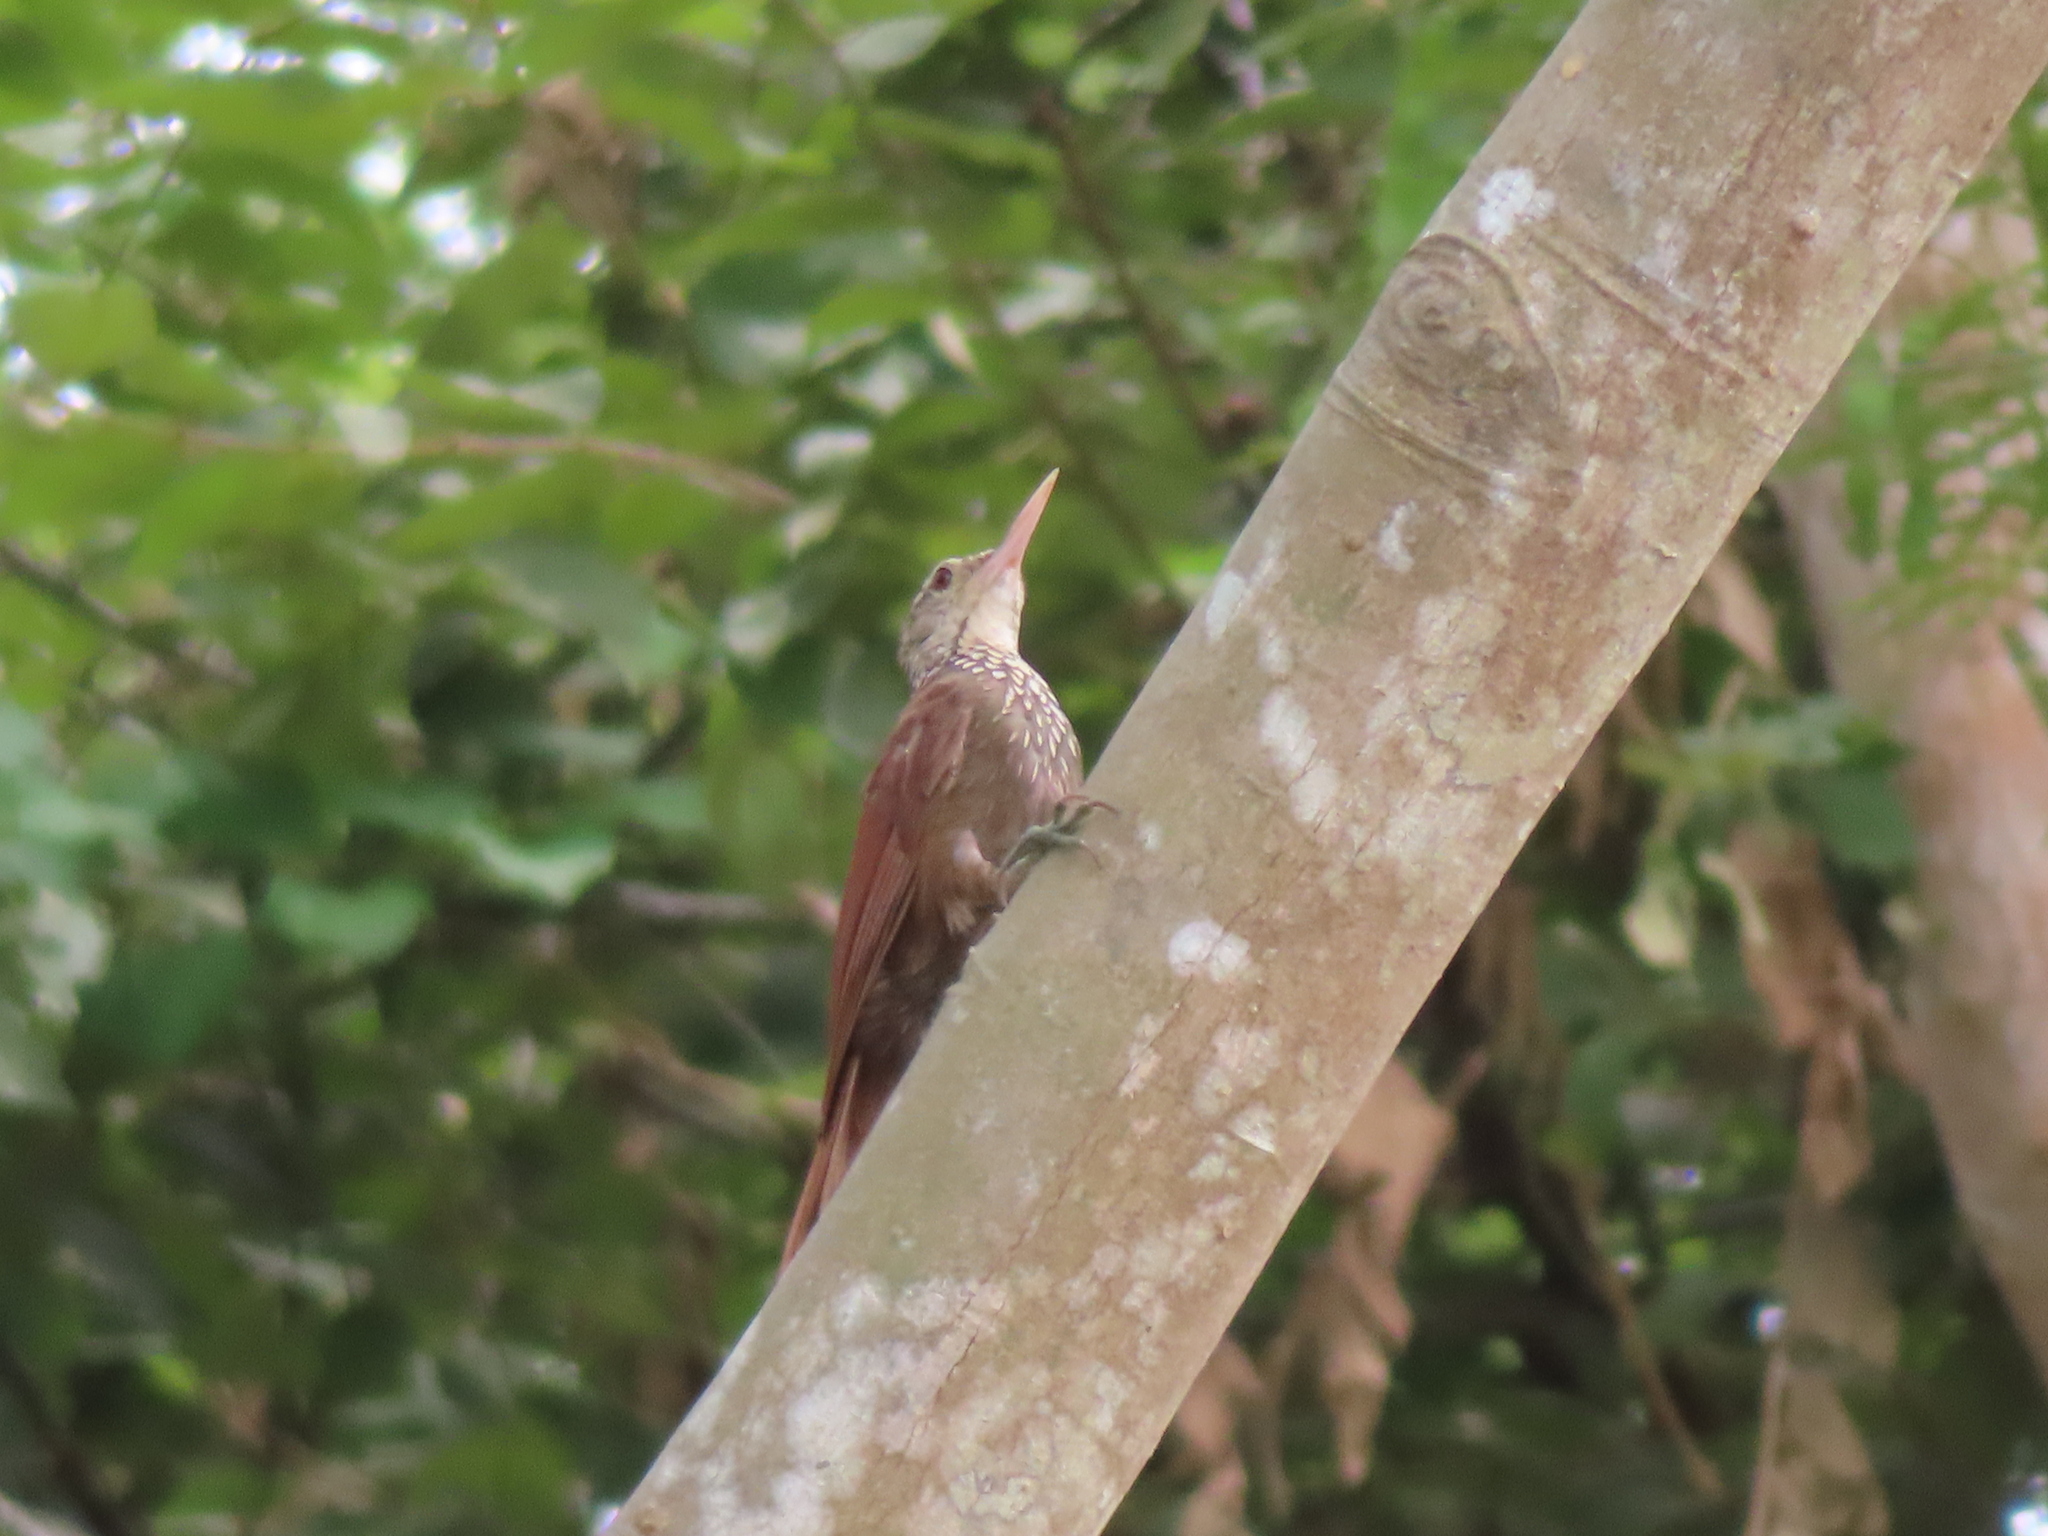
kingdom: Animalia
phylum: Chordata
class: Aves
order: Passeriformes
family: Furnariidae
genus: Xiphorhynchus
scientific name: Xiphorhynchus picus
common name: Straight-billed woodcreeper
